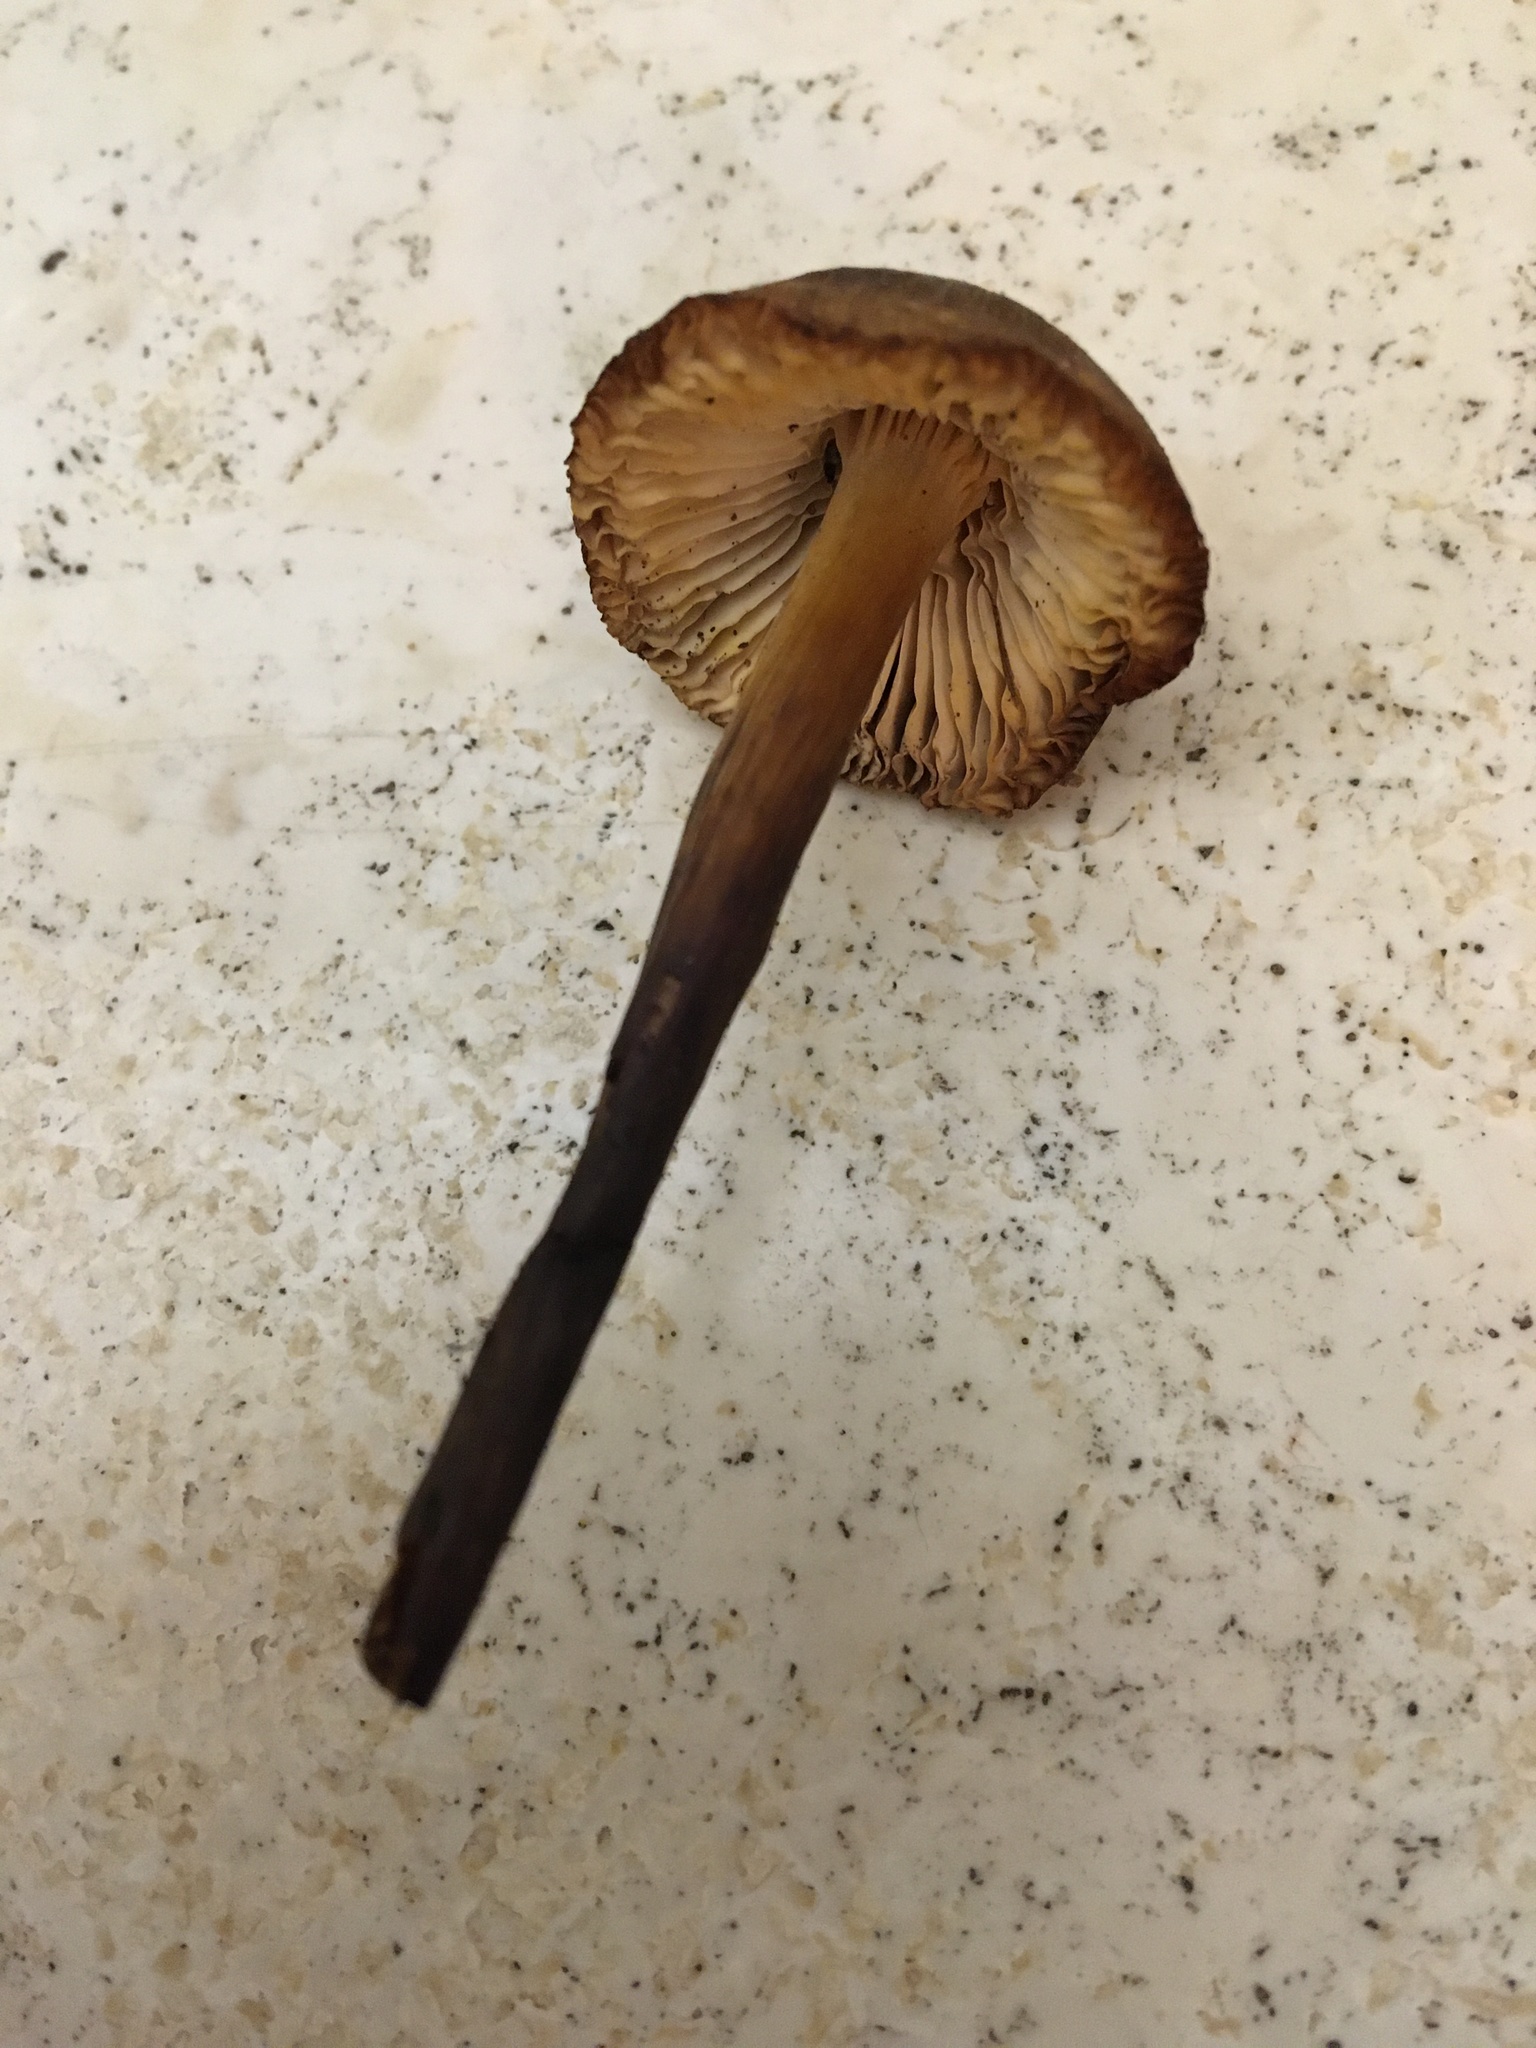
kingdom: Fungi
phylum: Basidiomycota
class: Agaricomycetes
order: Agaricales
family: Mycenaceae
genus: Mycena
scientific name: Mycena inclinata
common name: Clustered bonnet
